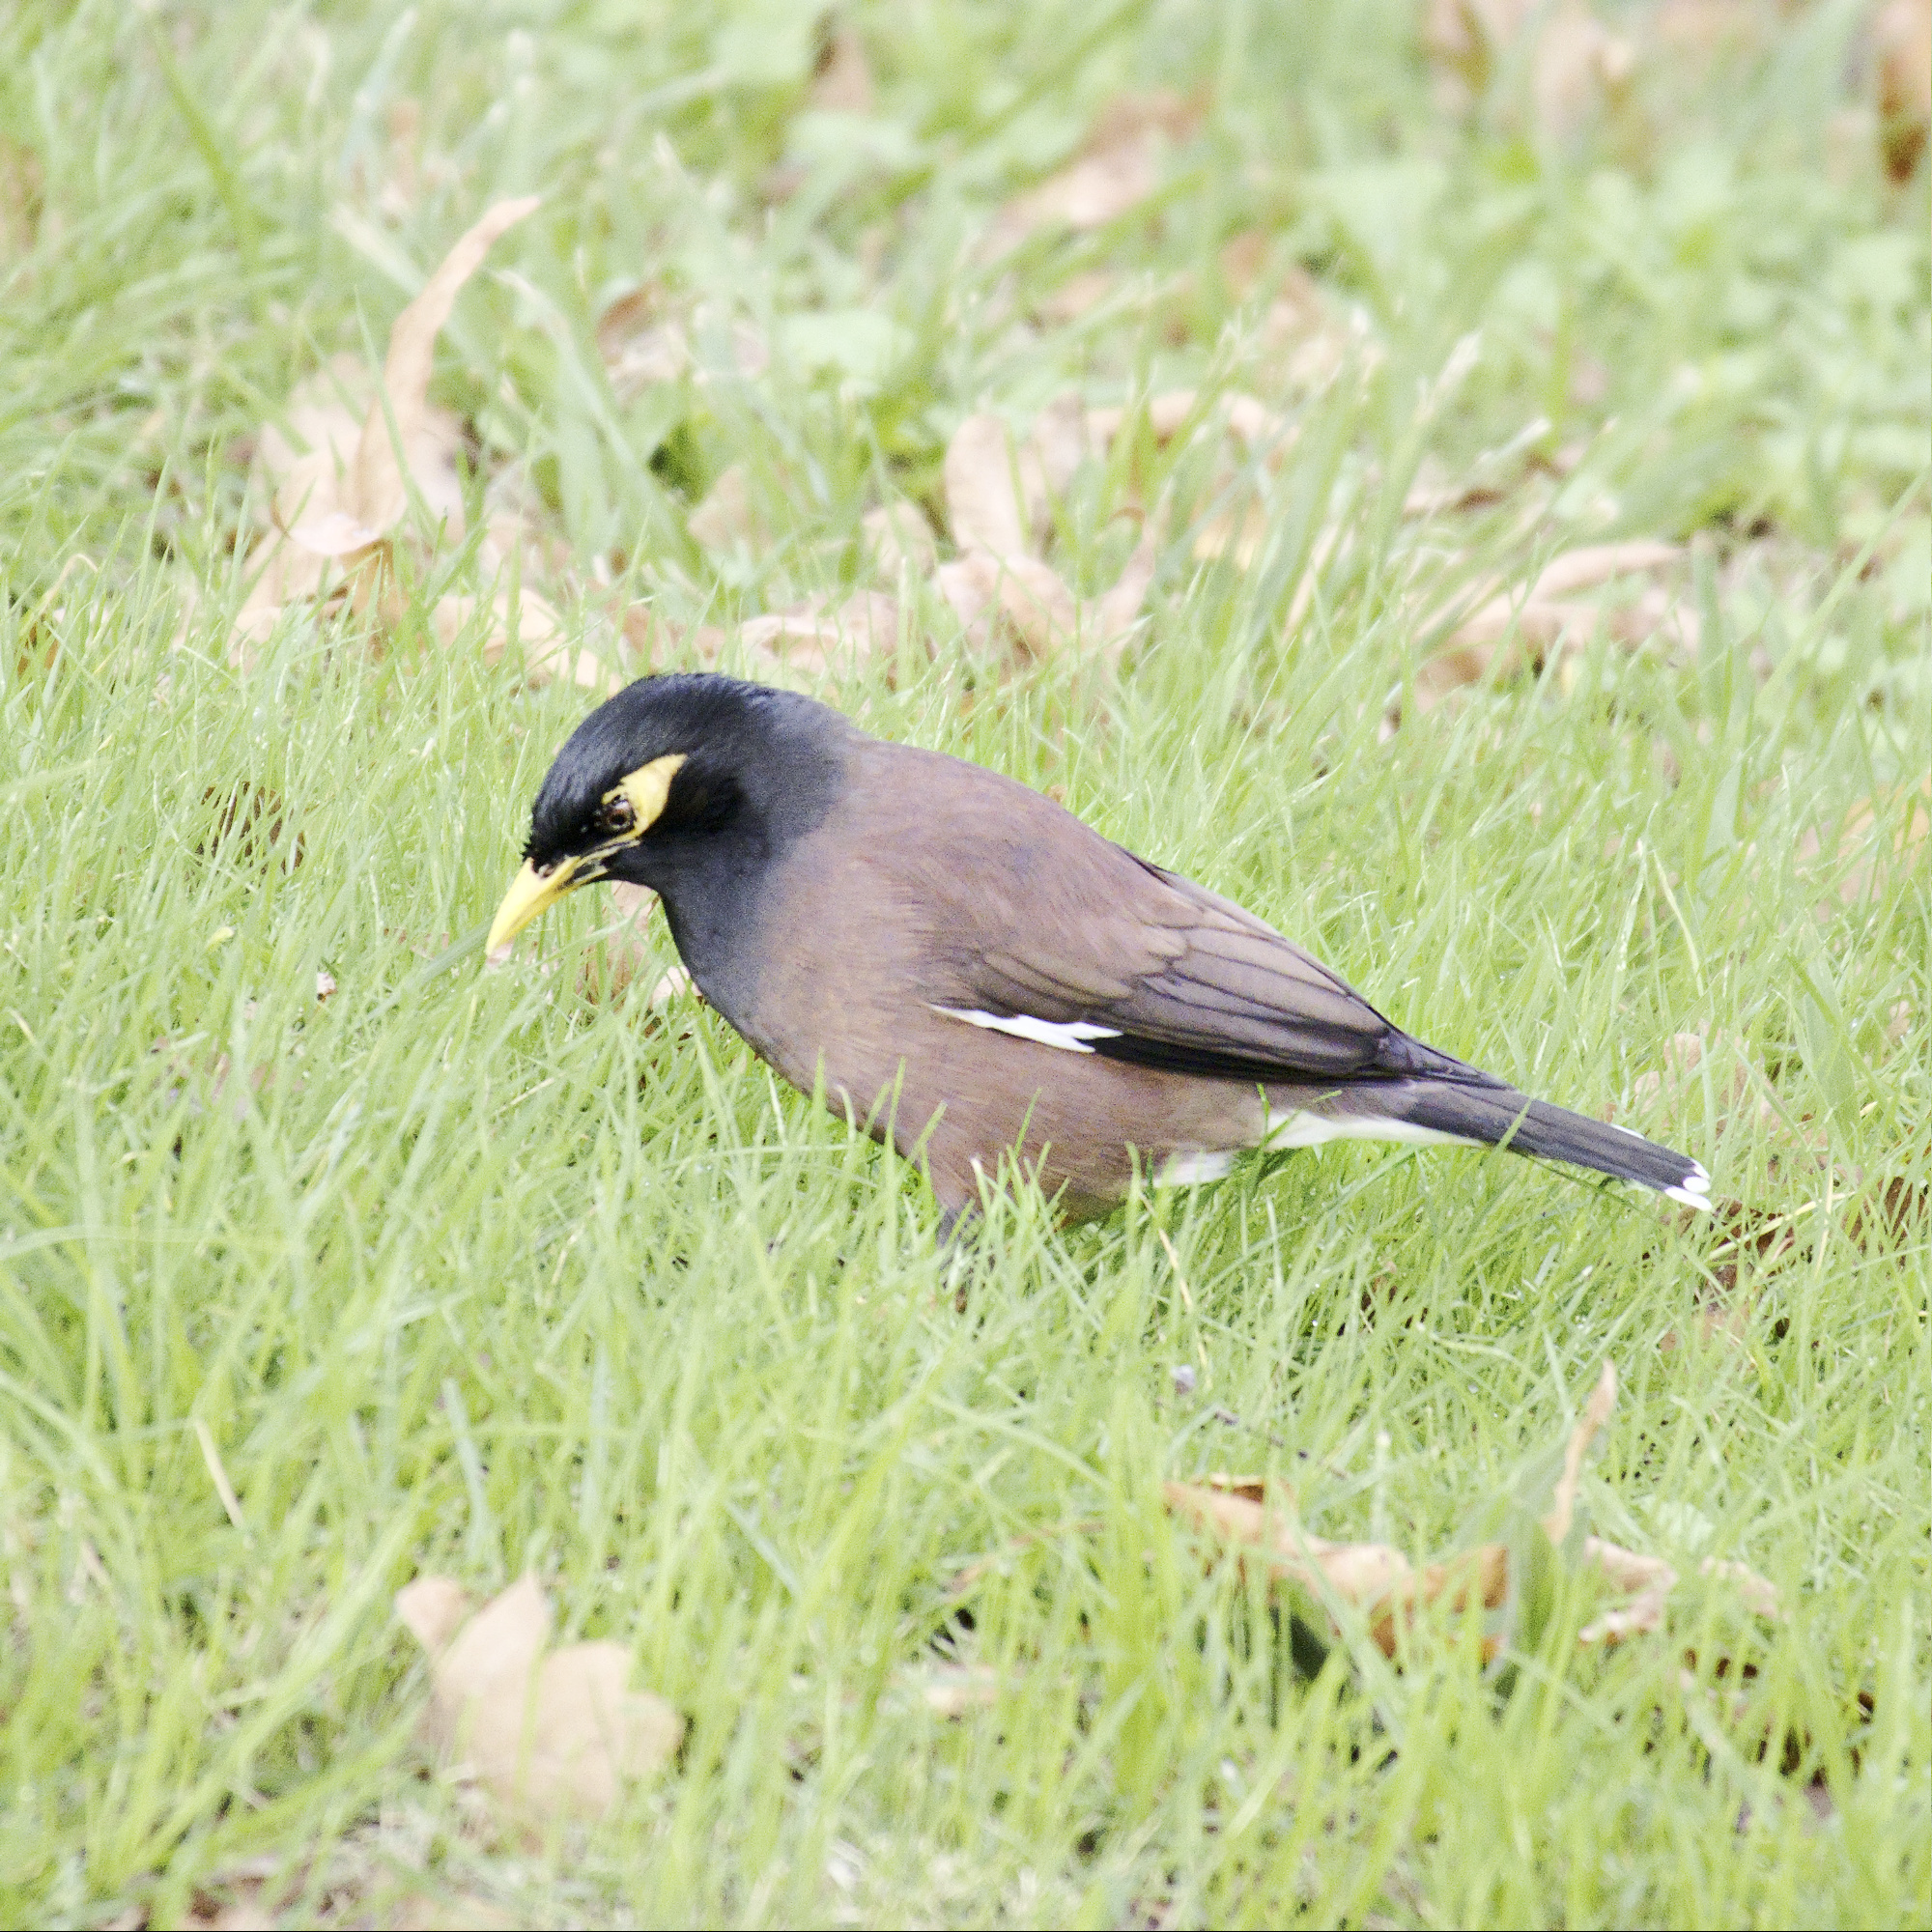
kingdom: Animalia
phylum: Chordata
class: Aves
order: Passeriformes
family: Sturnidae
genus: Acridotheres
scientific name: Acridotheres tristis
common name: Common myna
